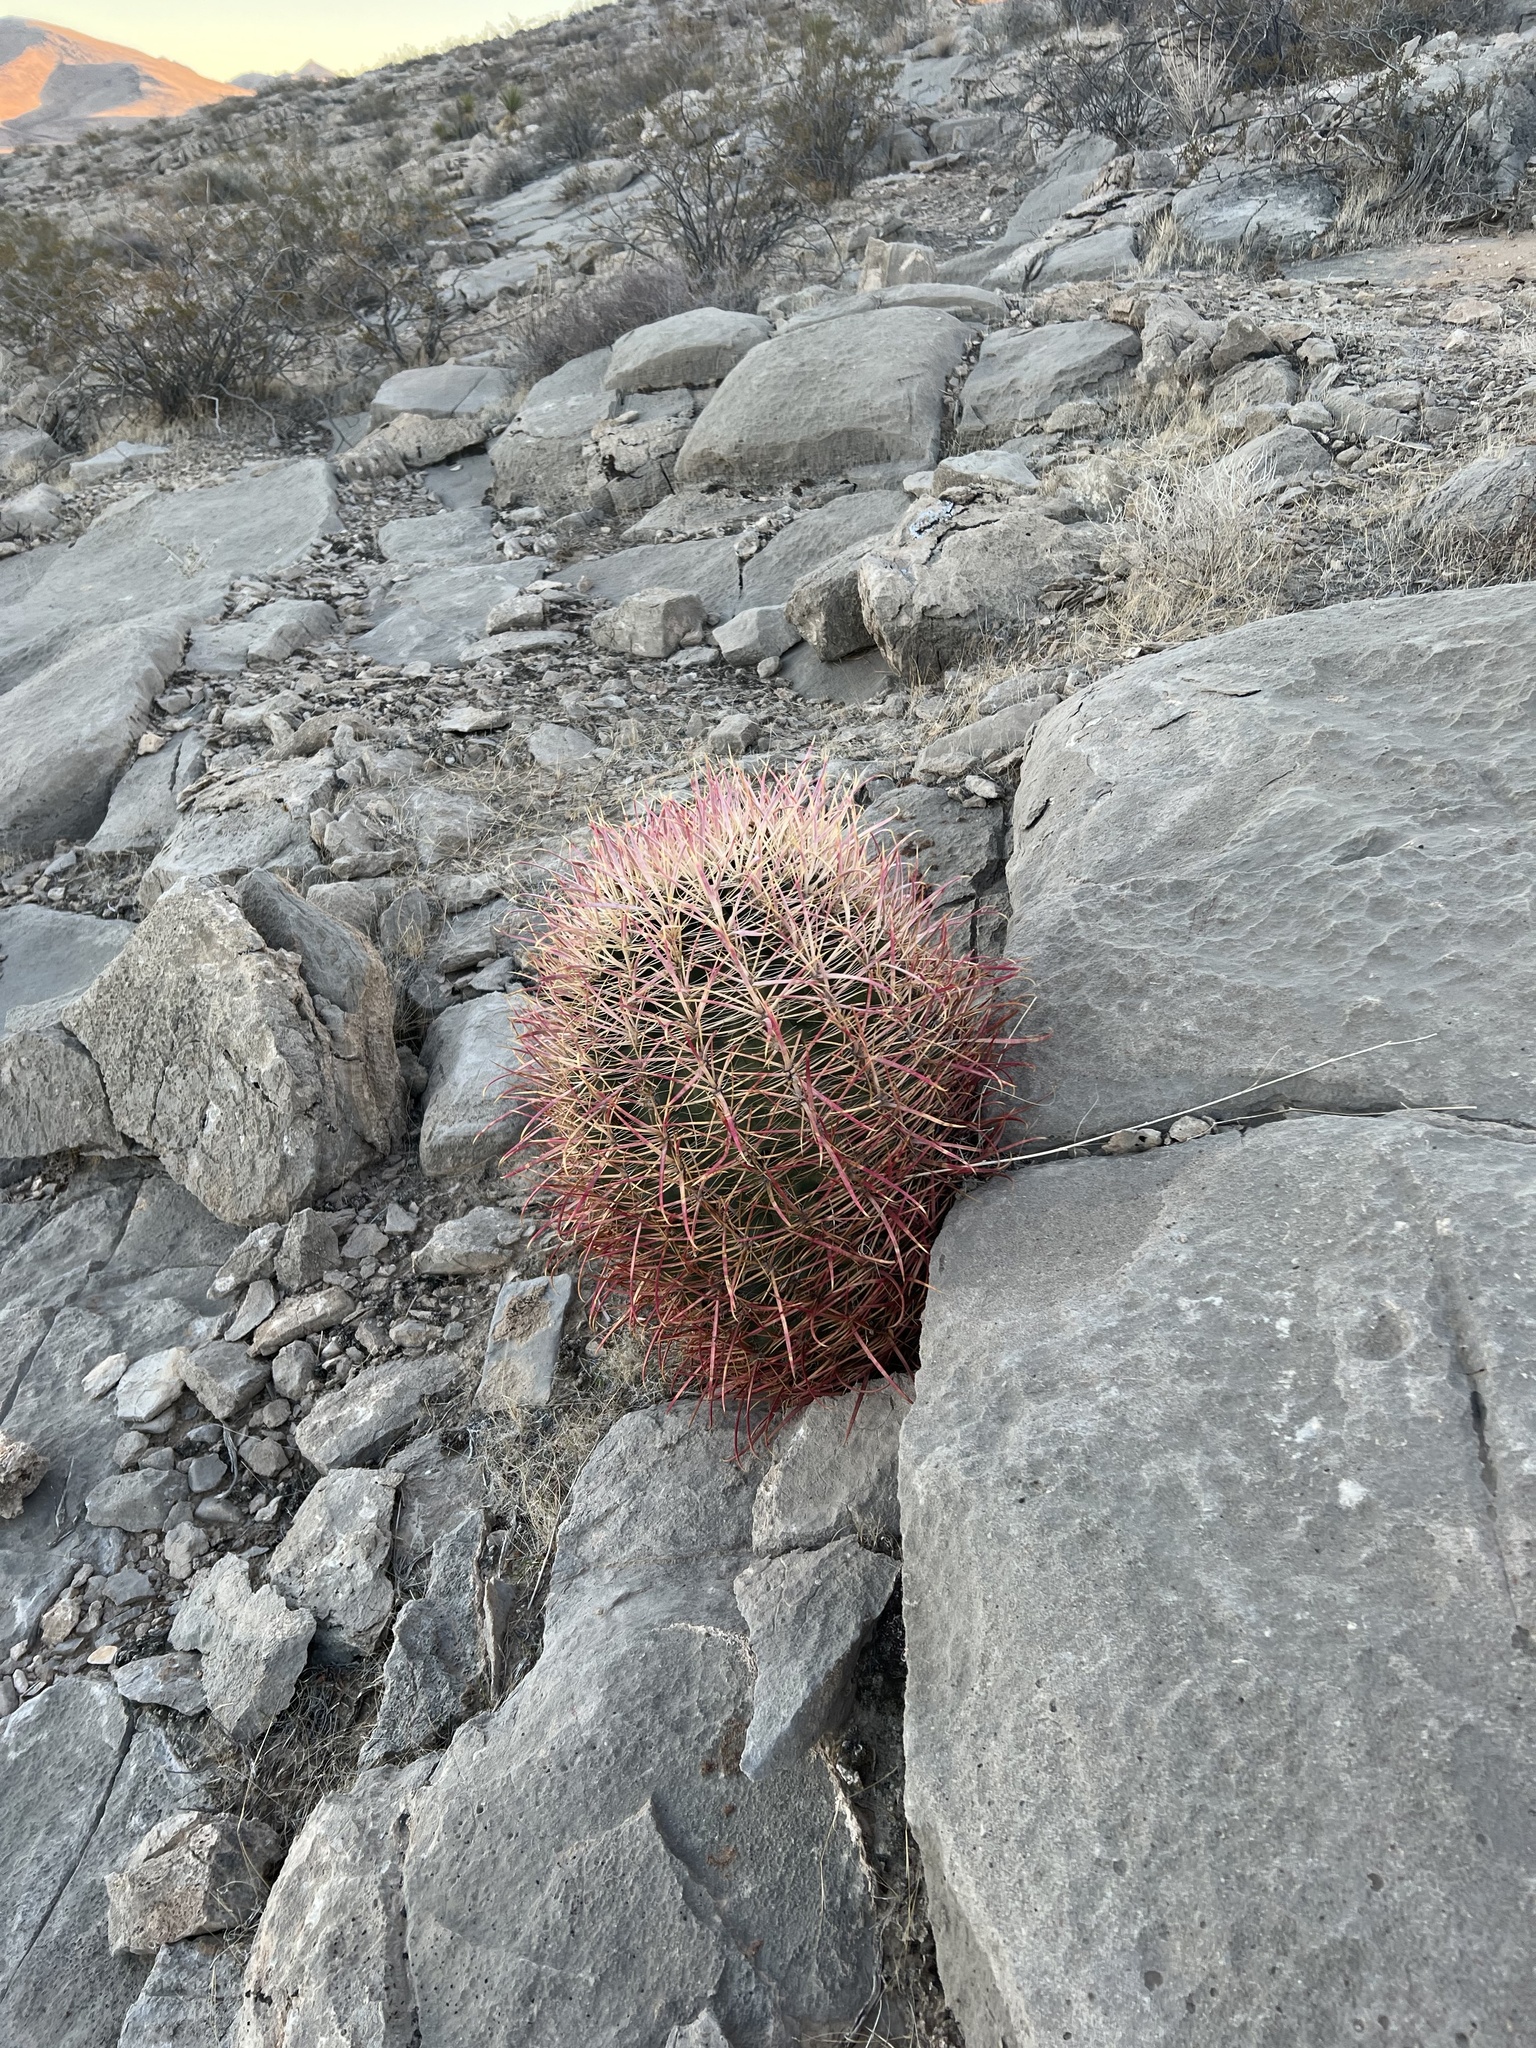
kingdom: Plantae
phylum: Tracheophyta
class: Magnoliopsida
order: Caryophyllales
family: Cactaceae
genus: Ferocactus
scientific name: Ferocactus cylindraceus
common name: California barrel cactus
